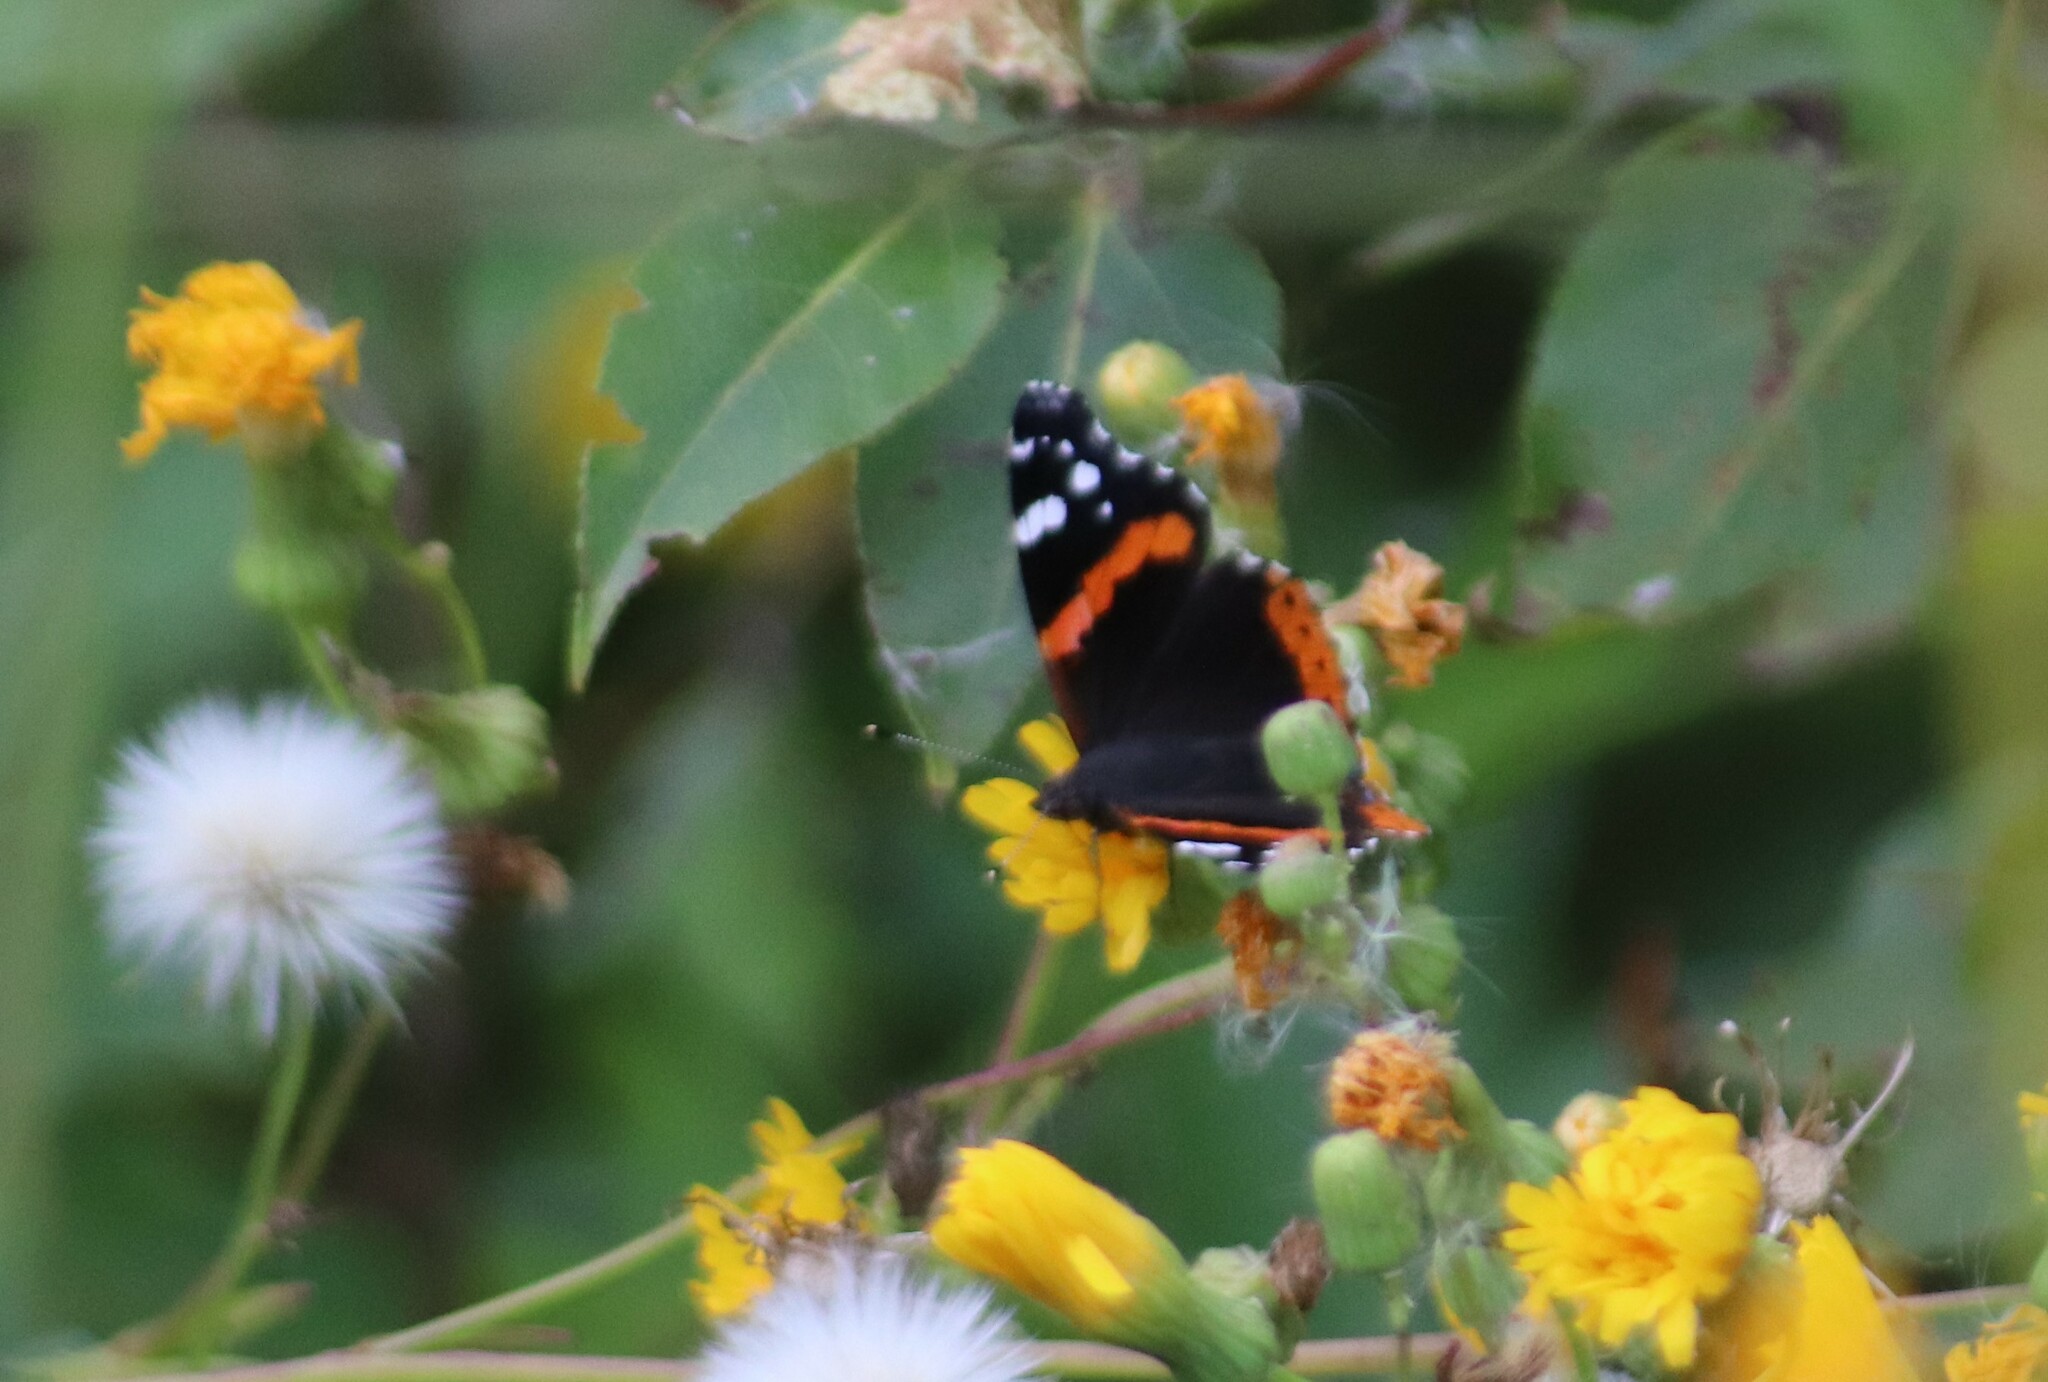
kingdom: Animalia
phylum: Arthropoda
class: Insecta
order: Lepidoptera
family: Nymphalidae
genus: Vanessa
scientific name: Vanessa atalanta
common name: Red admiral
